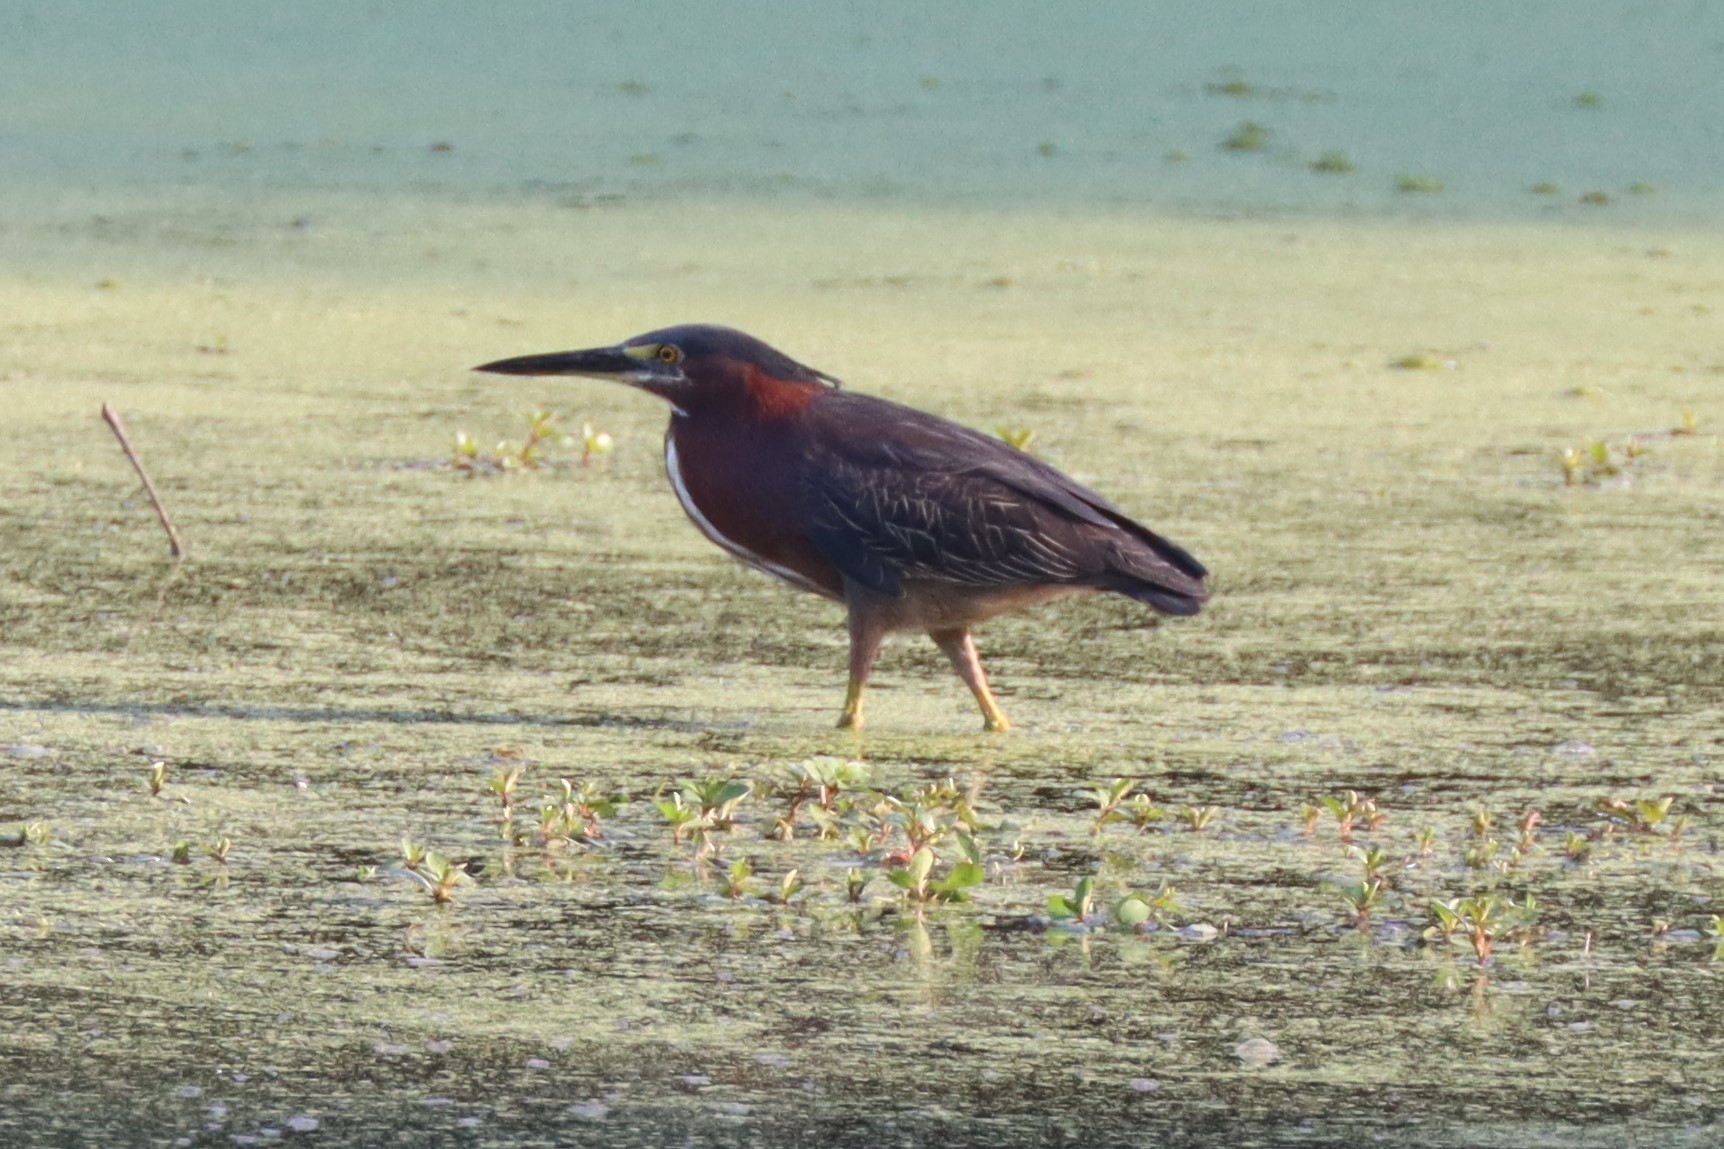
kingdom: Animalia
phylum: Chordata
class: Aves
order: Pelecaniformes
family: Ardeidae
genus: Butorides
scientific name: Butorides virescens
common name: Green heron
